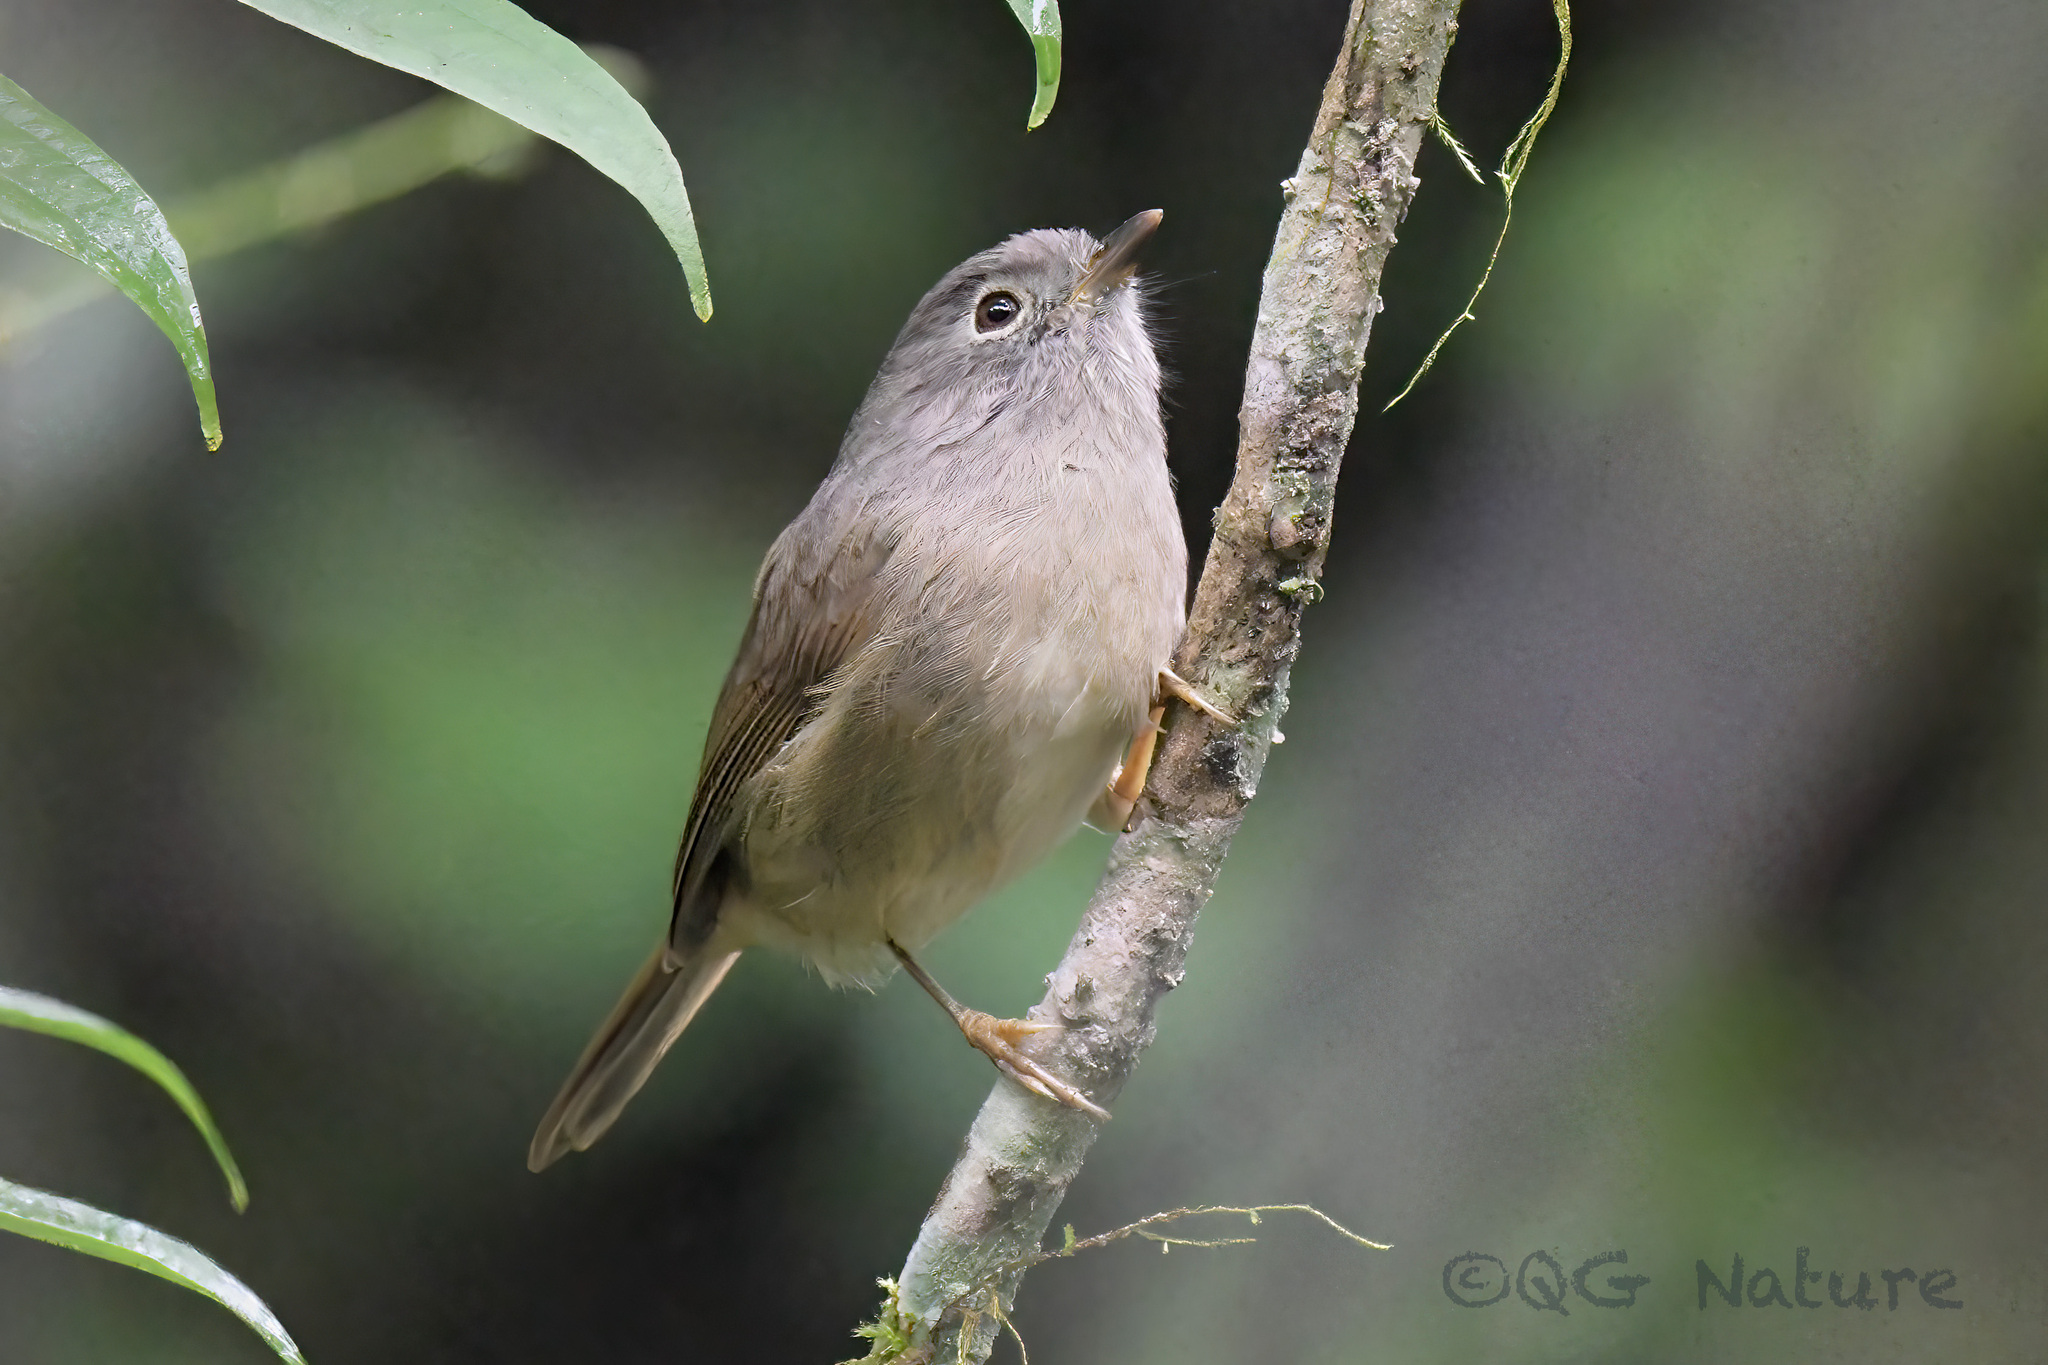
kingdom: Animalia
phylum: Chordata
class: Aves
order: Passeriformes
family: Pellorneidae
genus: Alcippe
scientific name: Alcippe davidi
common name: David's fulvetta
